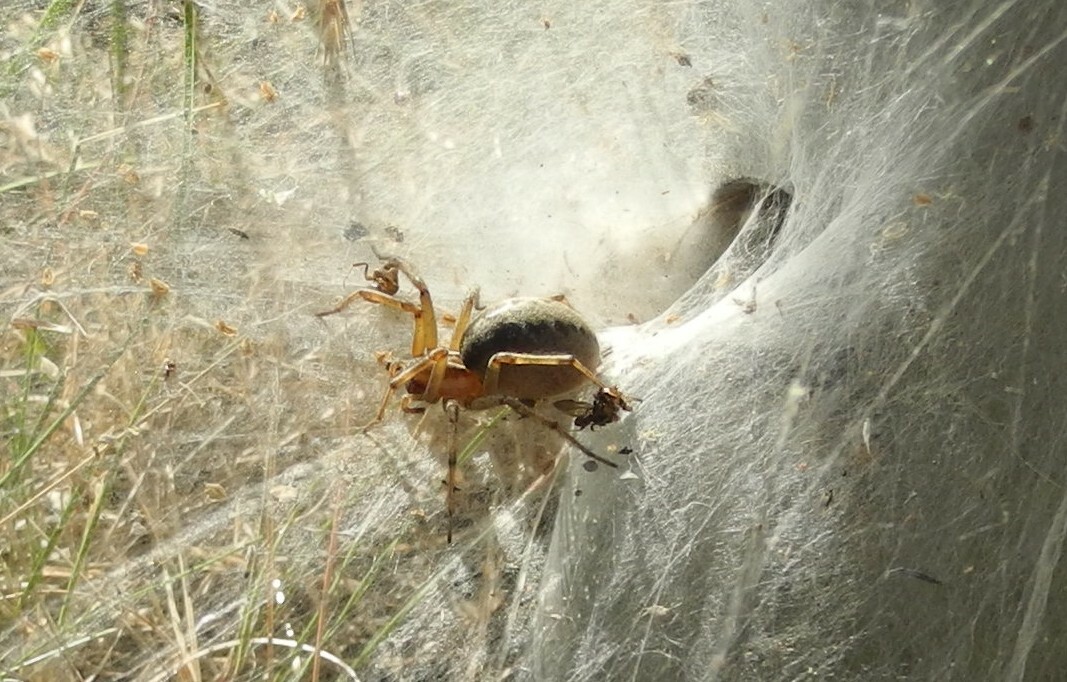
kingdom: Animalia
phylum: Arthropoda
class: Arachnida
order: Araneae
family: Agelenidae
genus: Agelena
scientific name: Agelena labyrinthica
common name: Labyrinth spider
